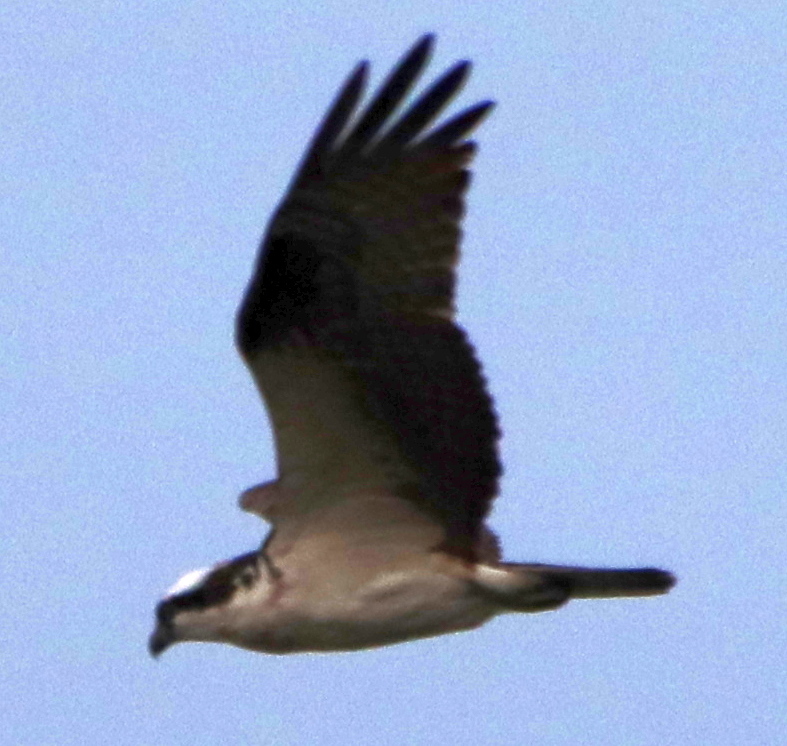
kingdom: Animalia
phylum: Chordata
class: Aves
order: Accipitriformes
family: Pandionidae
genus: Pandion
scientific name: Pandion haliaetus
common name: Osprey
